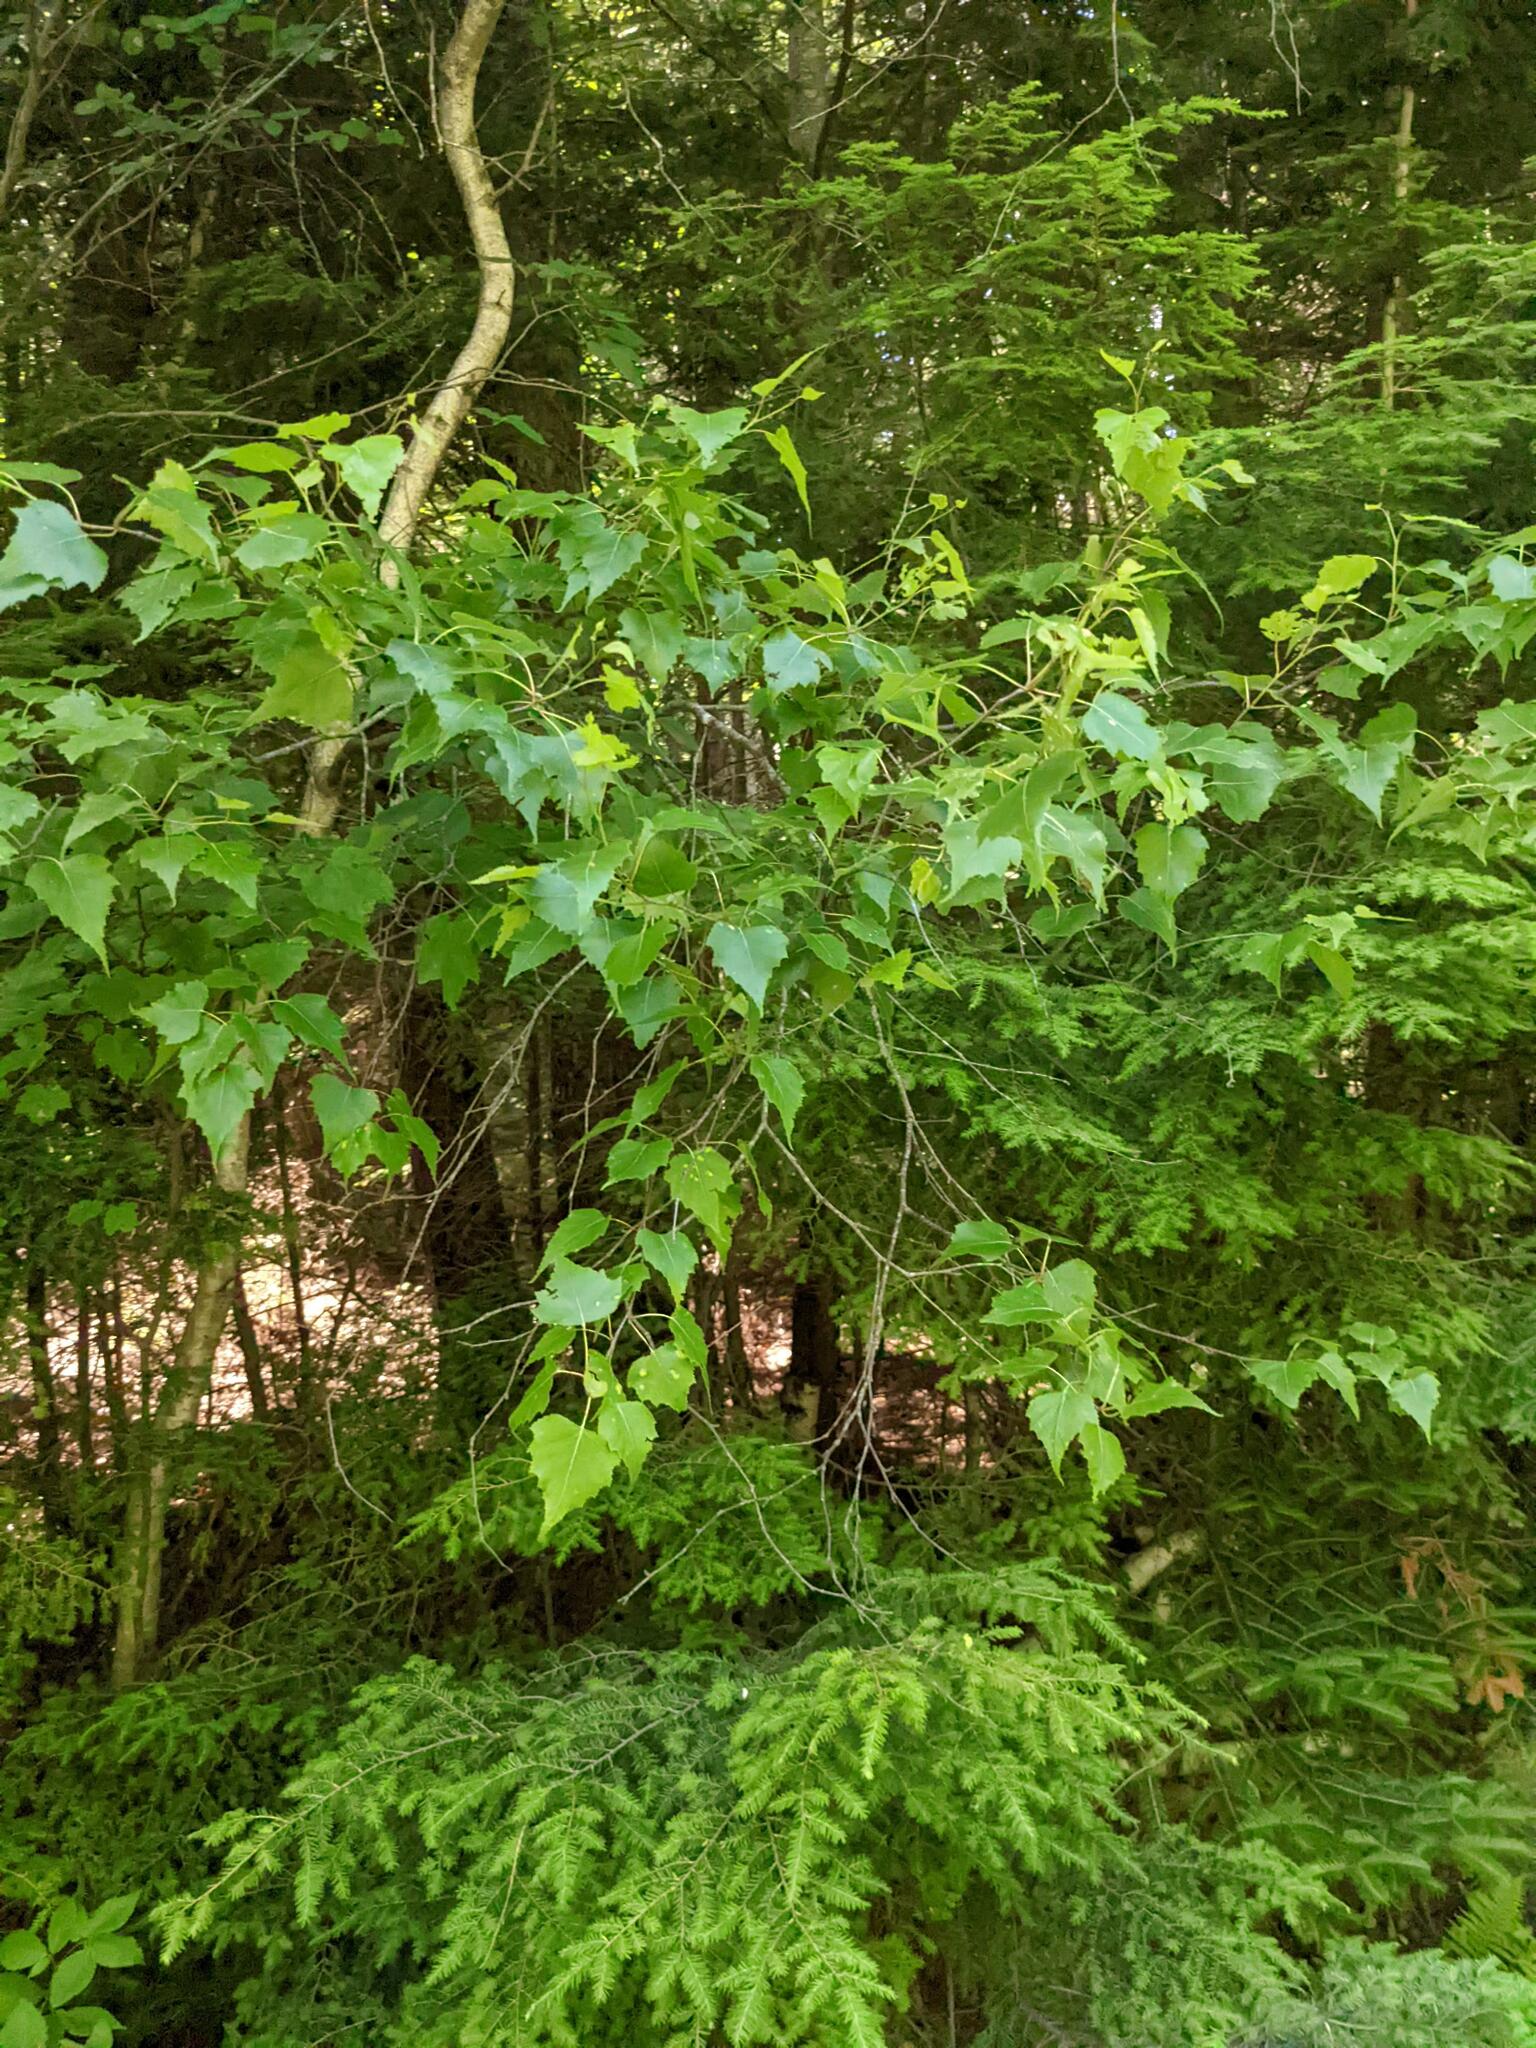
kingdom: Plantae
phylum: Tracheophyta
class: Magnoliopsida
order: Fagales
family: Betulaceae
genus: Betula
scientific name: Betula populifolia
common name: Fire birch
